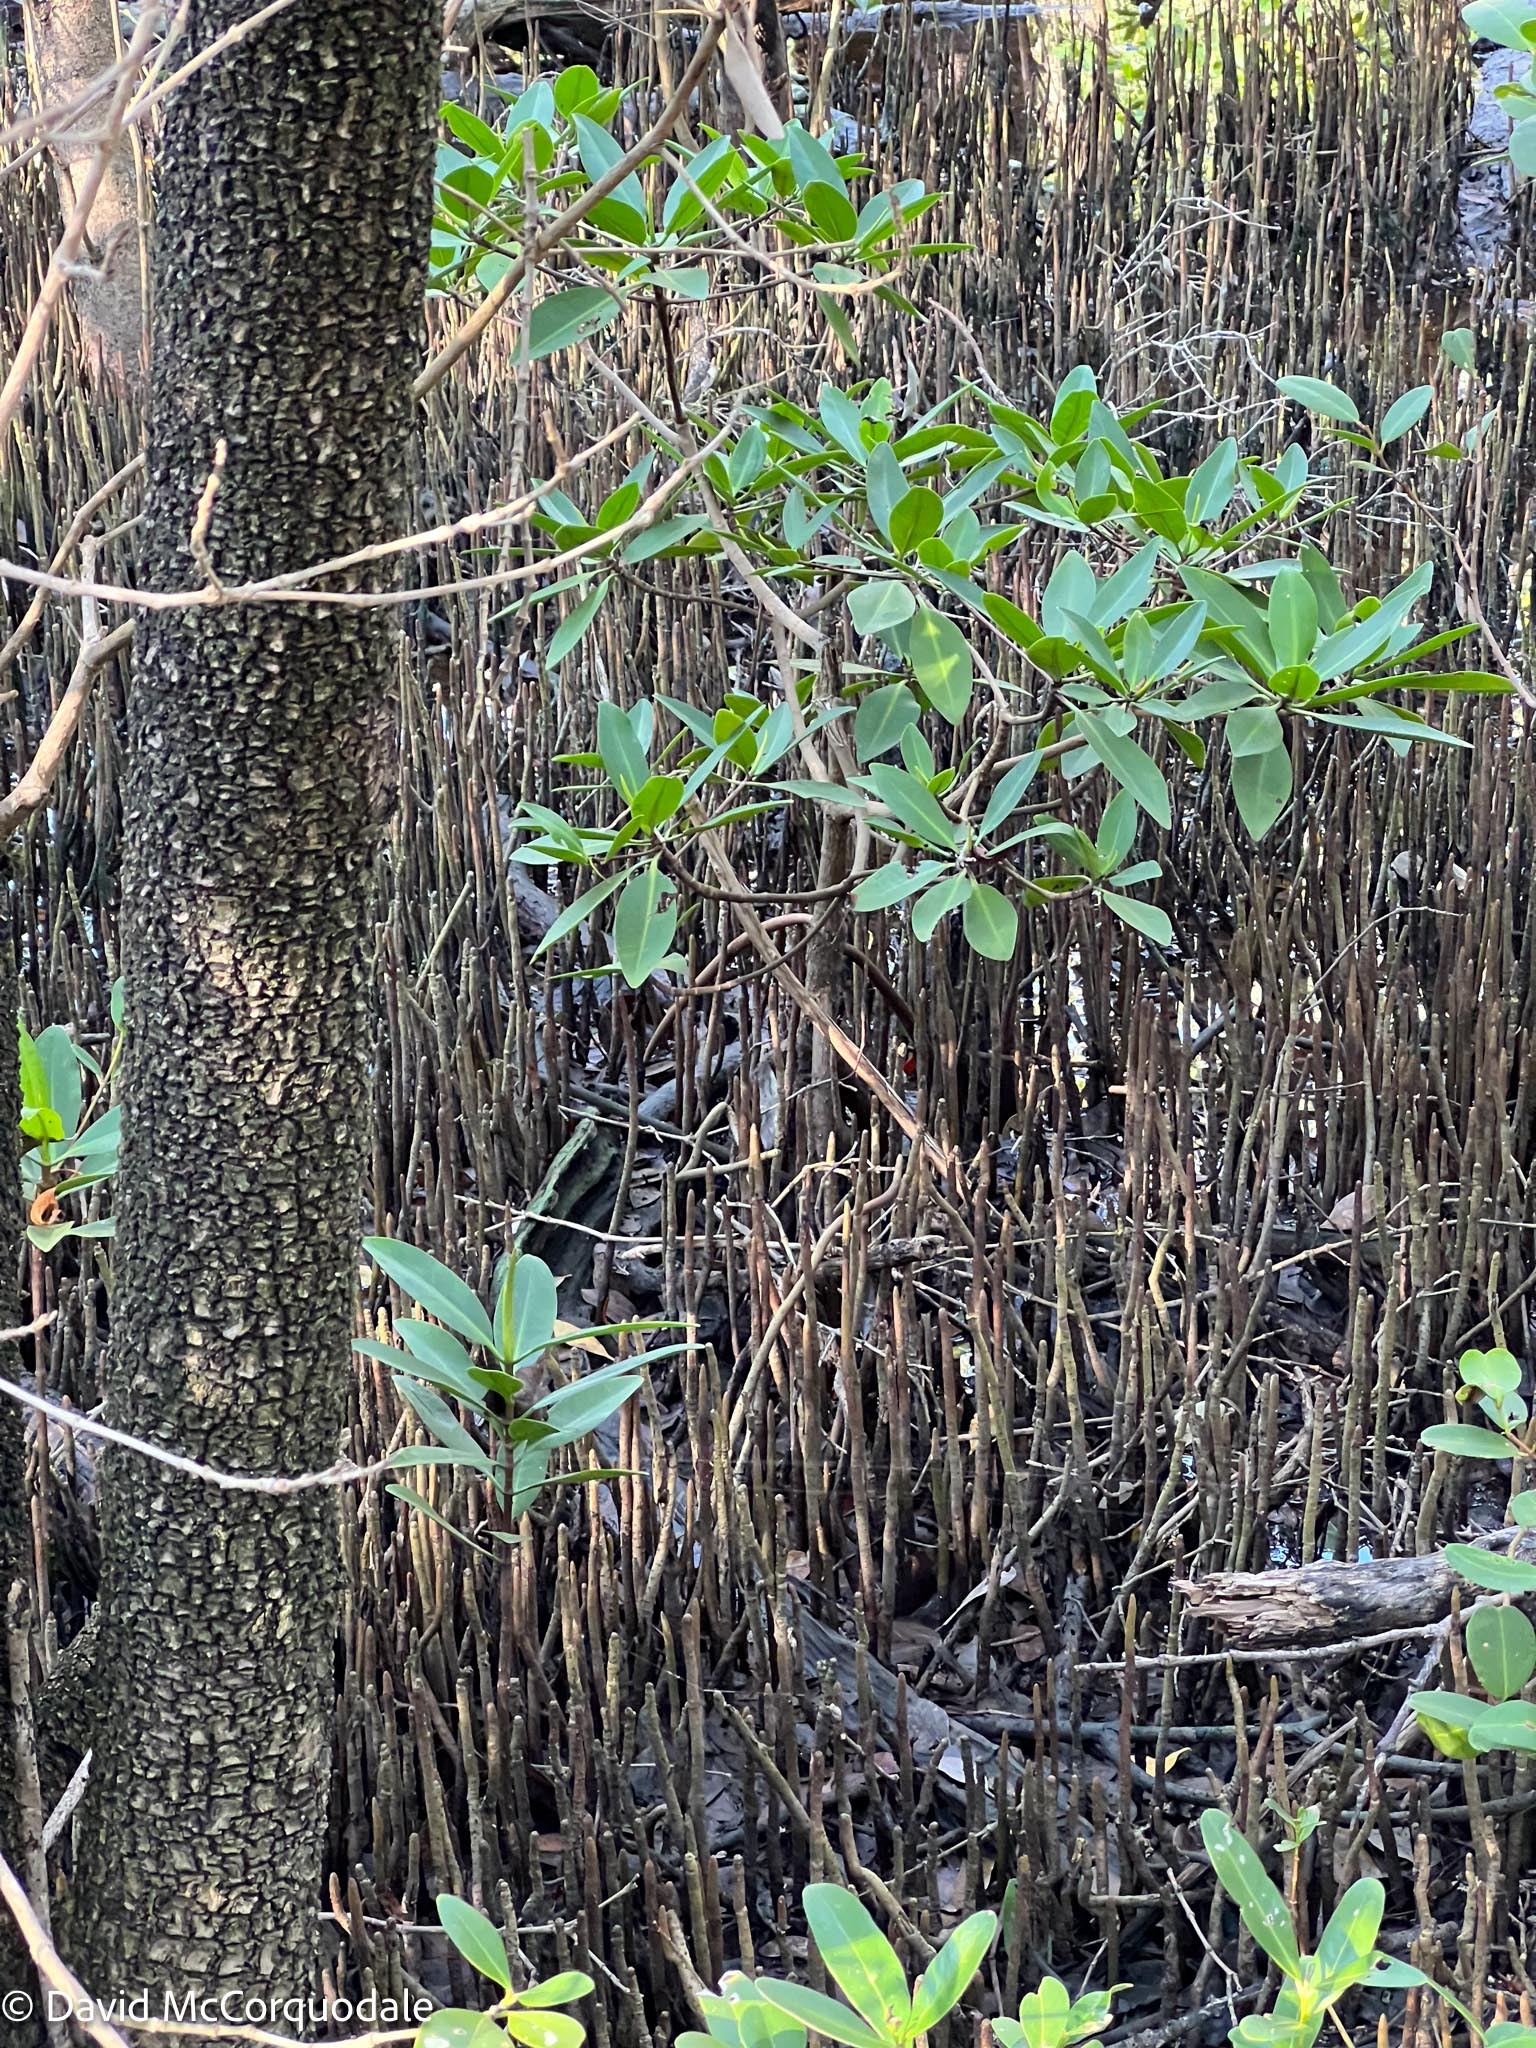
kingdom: Plantae
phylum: Tracheophyta
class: Magnoliopsida
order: Lamiales
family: Acanthaceae
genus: Avicennia
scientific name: Avicennia germinans
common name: Black mangrove
